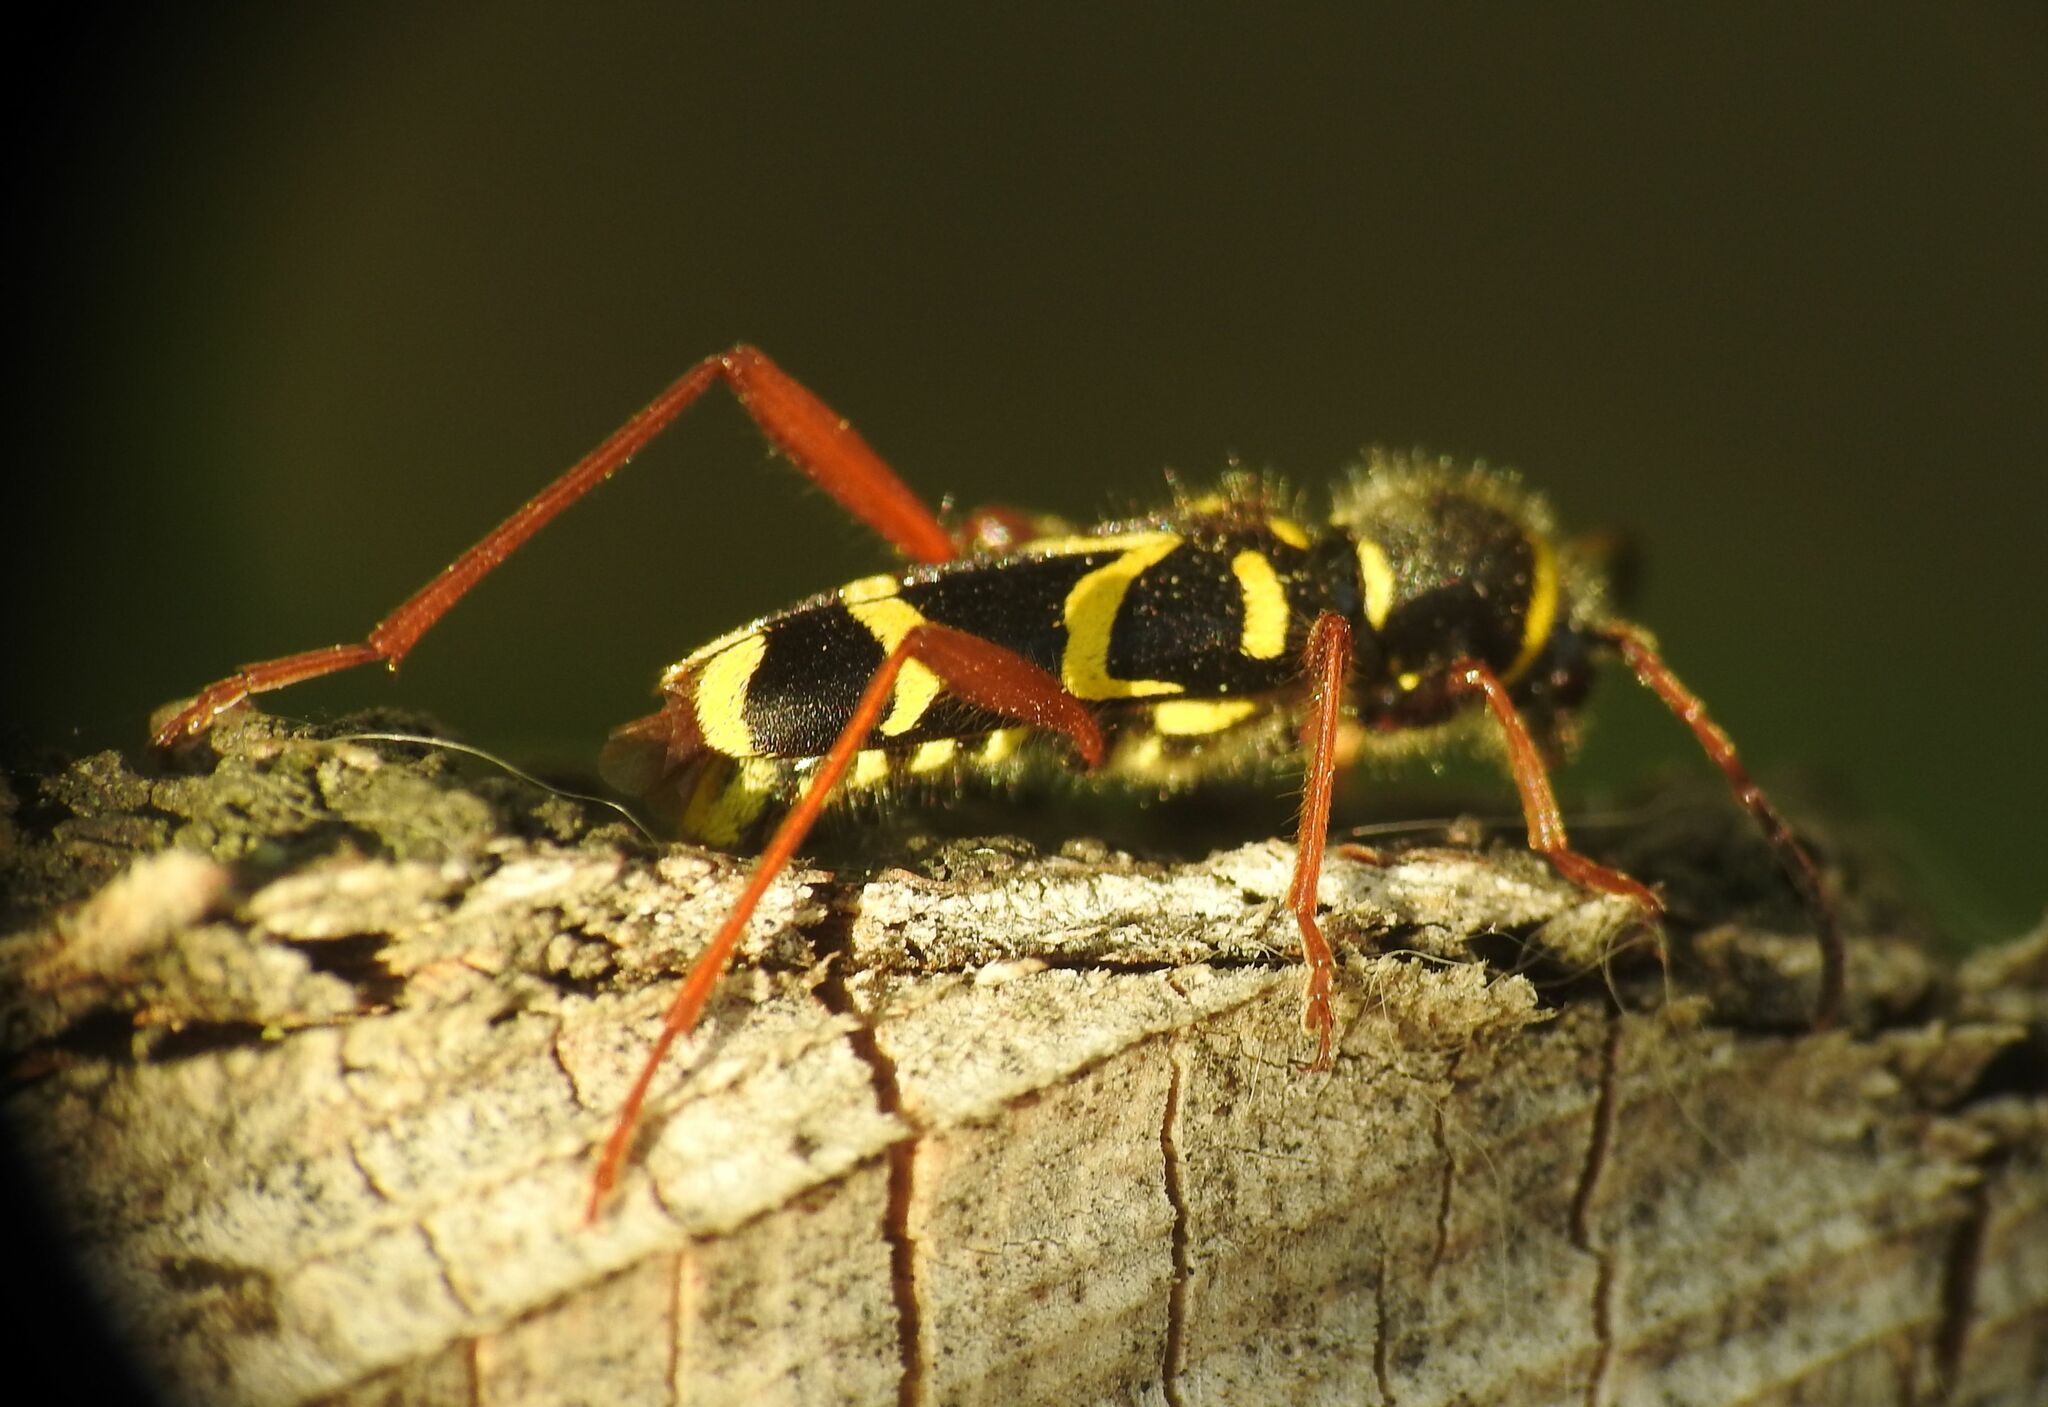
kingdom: Animalia
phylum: Arthropoda
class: Insecta
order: Coleoptera
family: Cerambycidae
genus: Clytus
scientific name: Clytus arietis
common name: Wasp beetle
